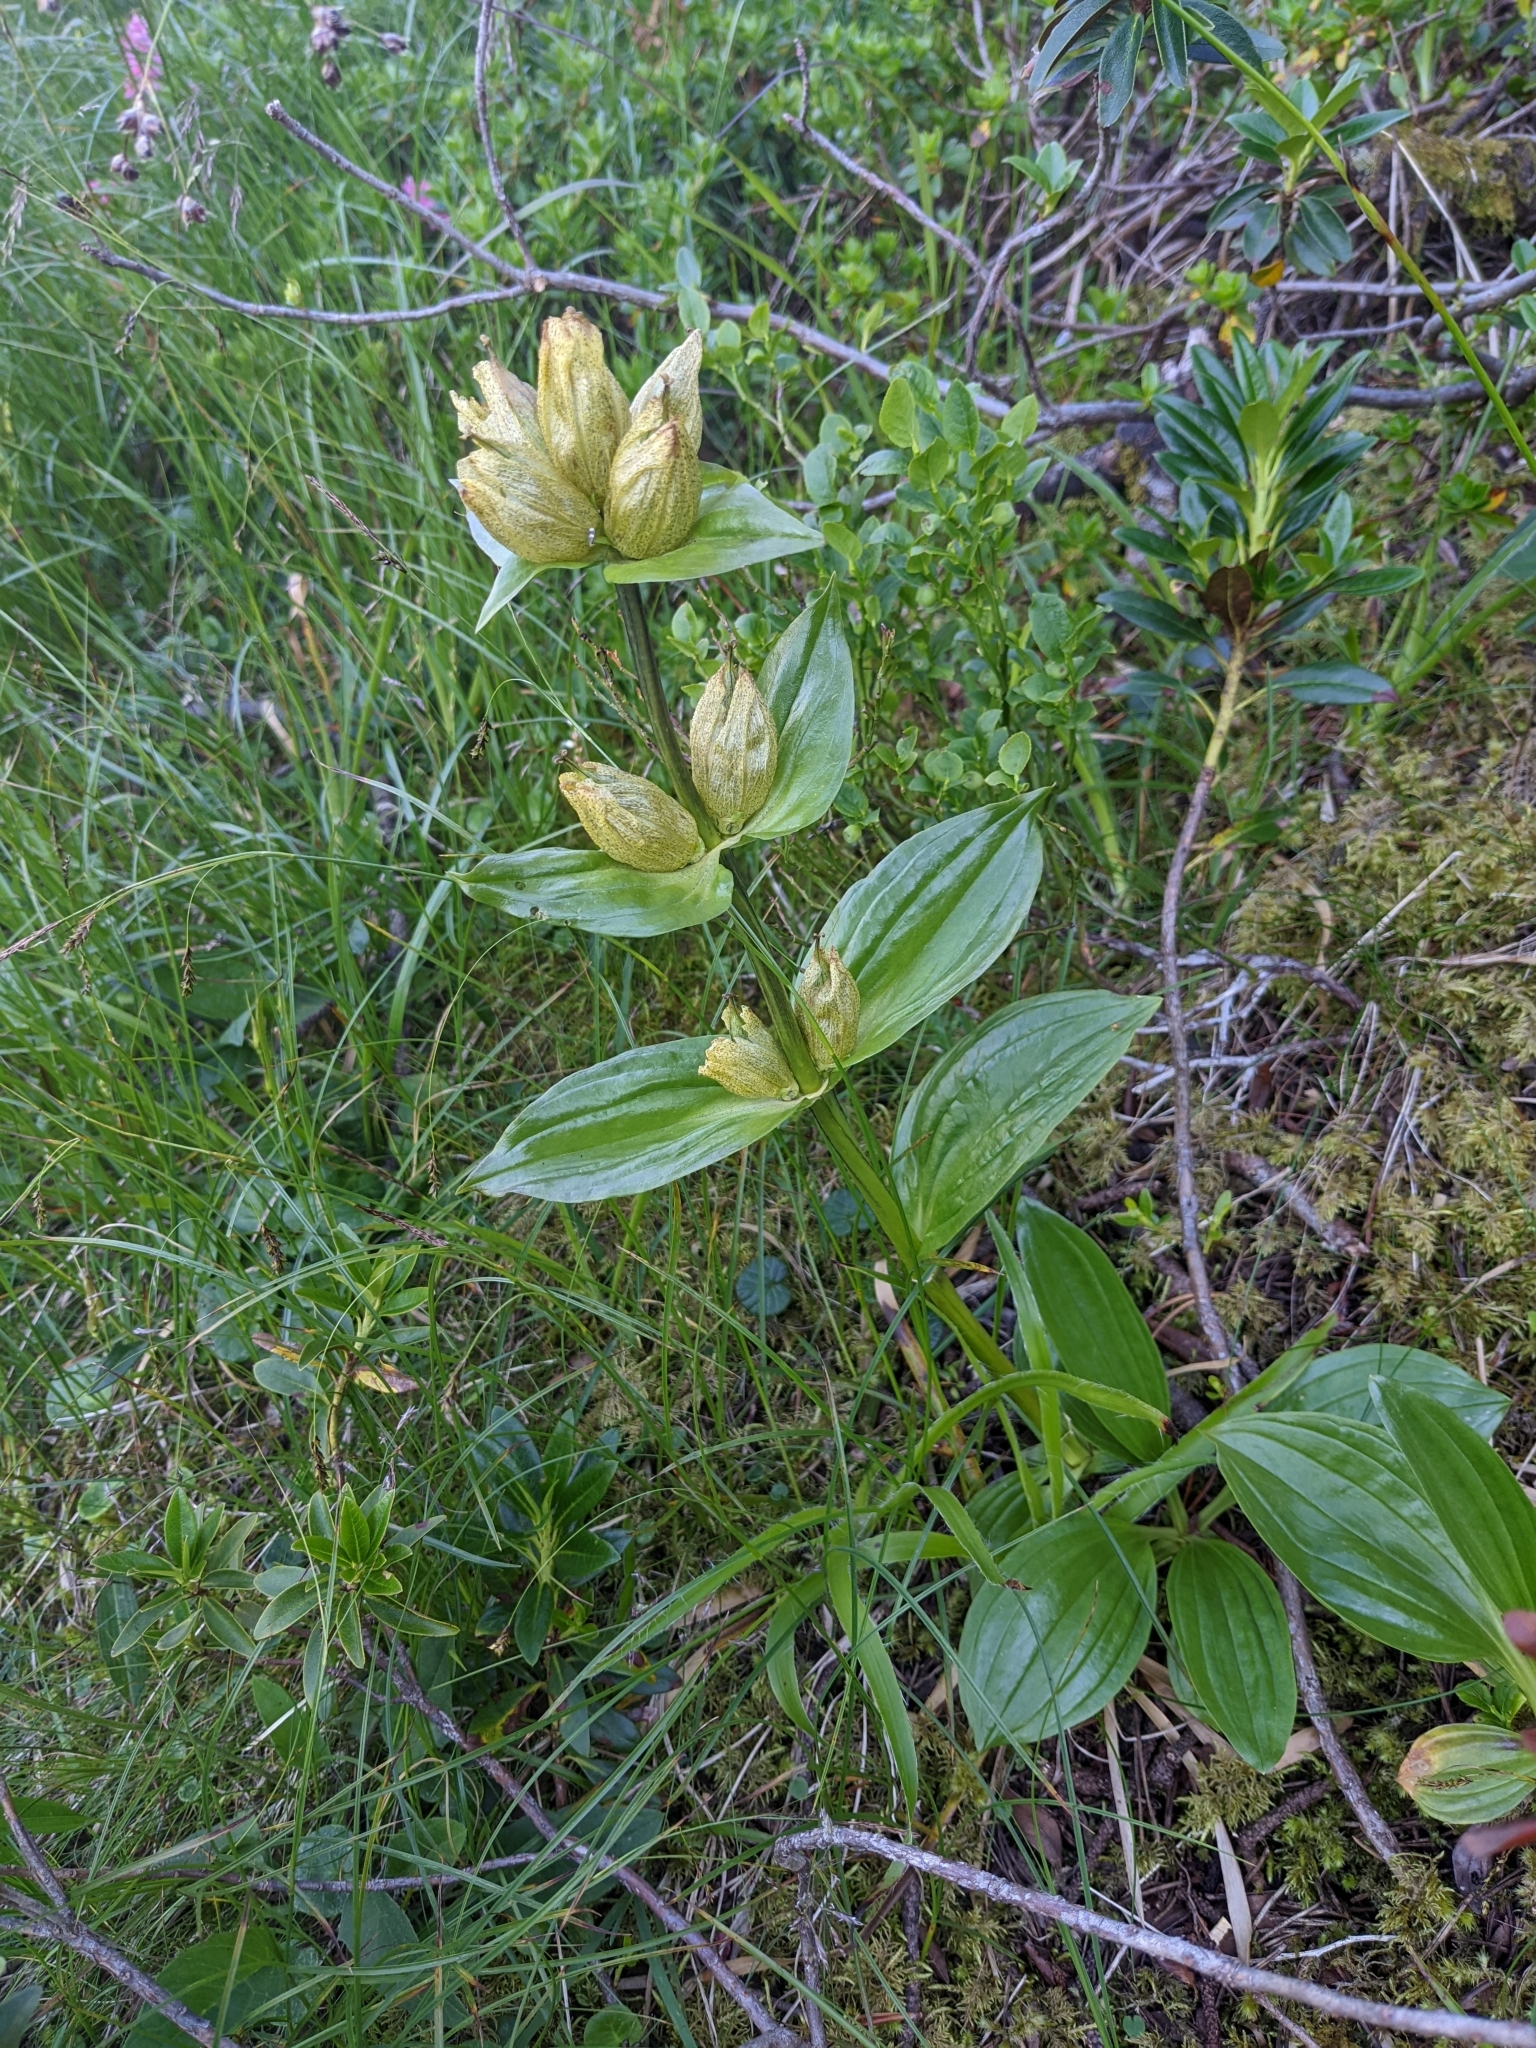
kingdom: Plantae
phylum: Tracheophyta
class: Magnoliopsida
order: Gentianales
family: Gentianaceae
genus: Gentiana
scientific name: Gentiana punctata
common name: Spotted gentian
